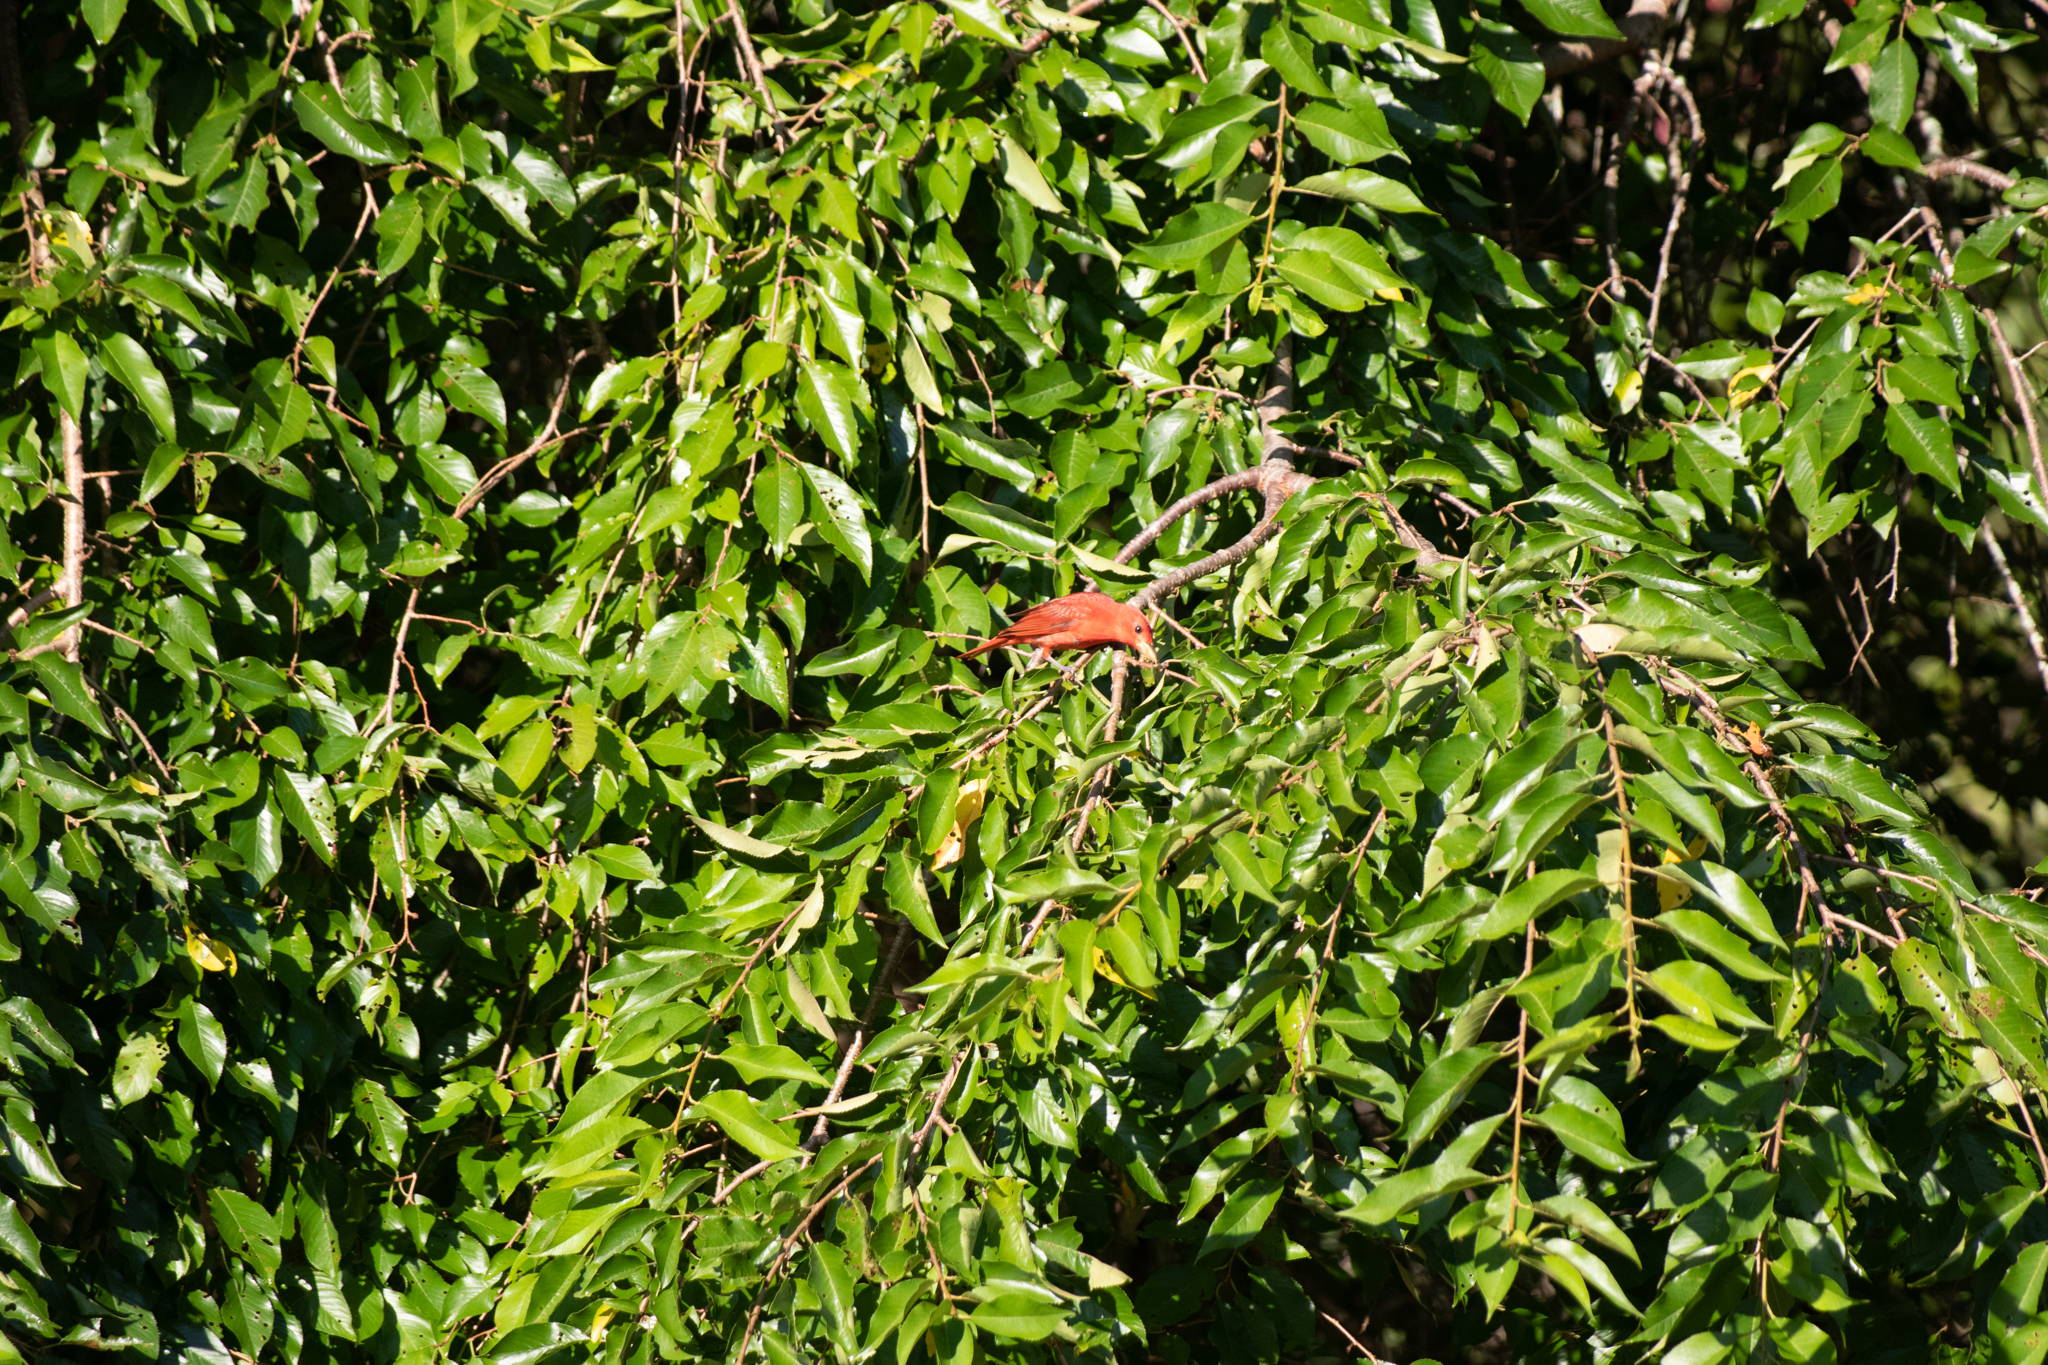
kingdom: Animalia
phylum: Chordata
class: Aves
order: Passeriformes
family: Cardinalidae
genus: Piranga
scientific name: Piranga rubra
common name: Summer tanager
